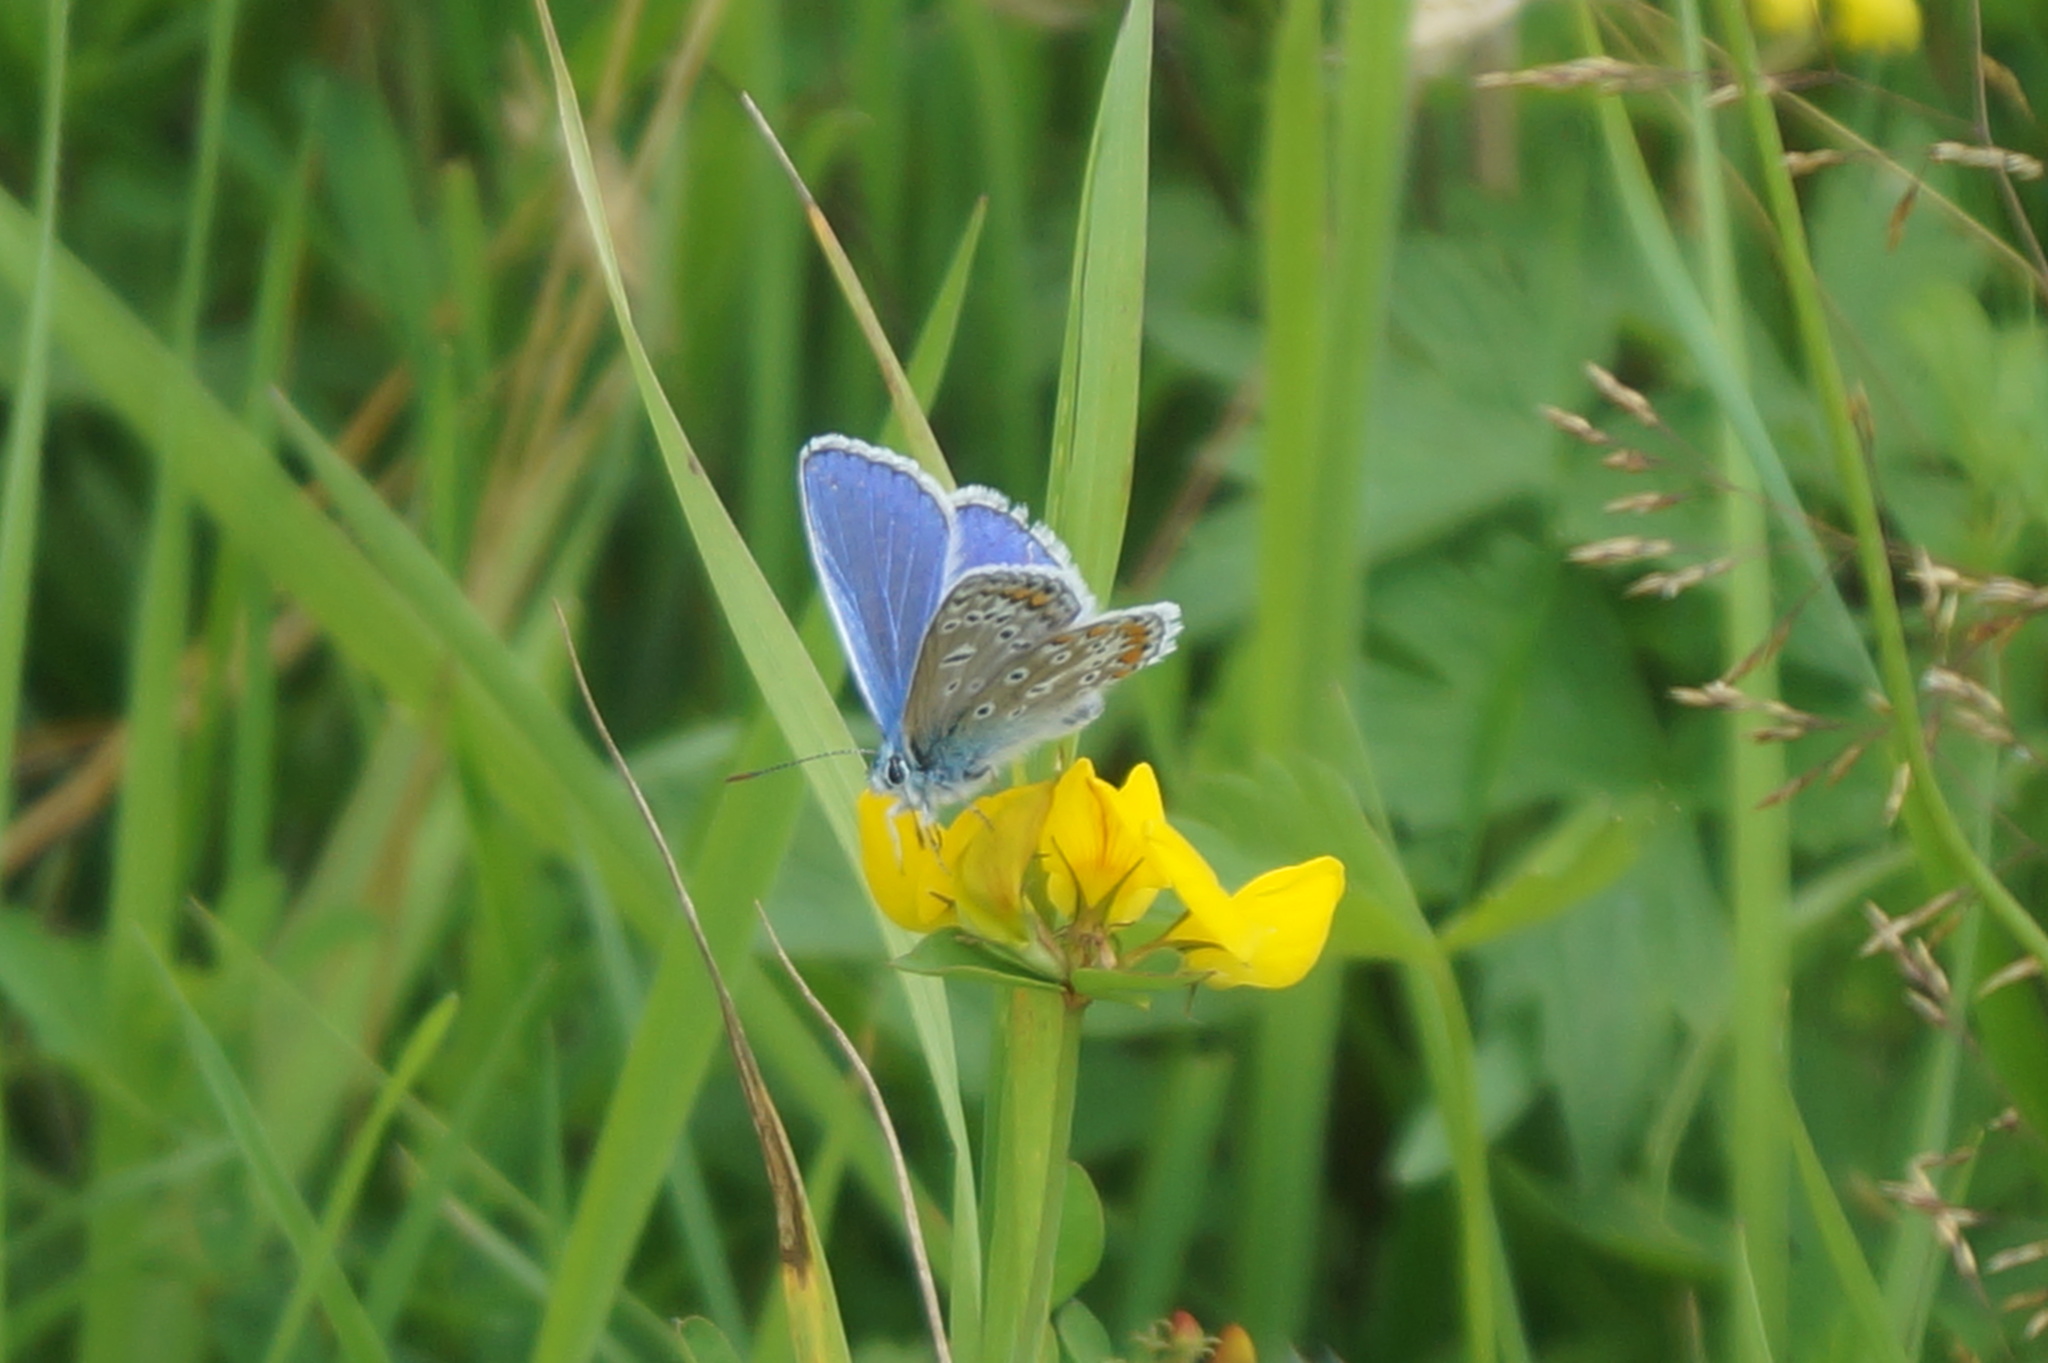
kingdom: Animalia
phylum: Arthropoda
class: Insecta
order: Lepidoptera
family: Lycaenidae
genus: Polyommatus
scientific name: Polyommatus icarus
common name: Common blue
